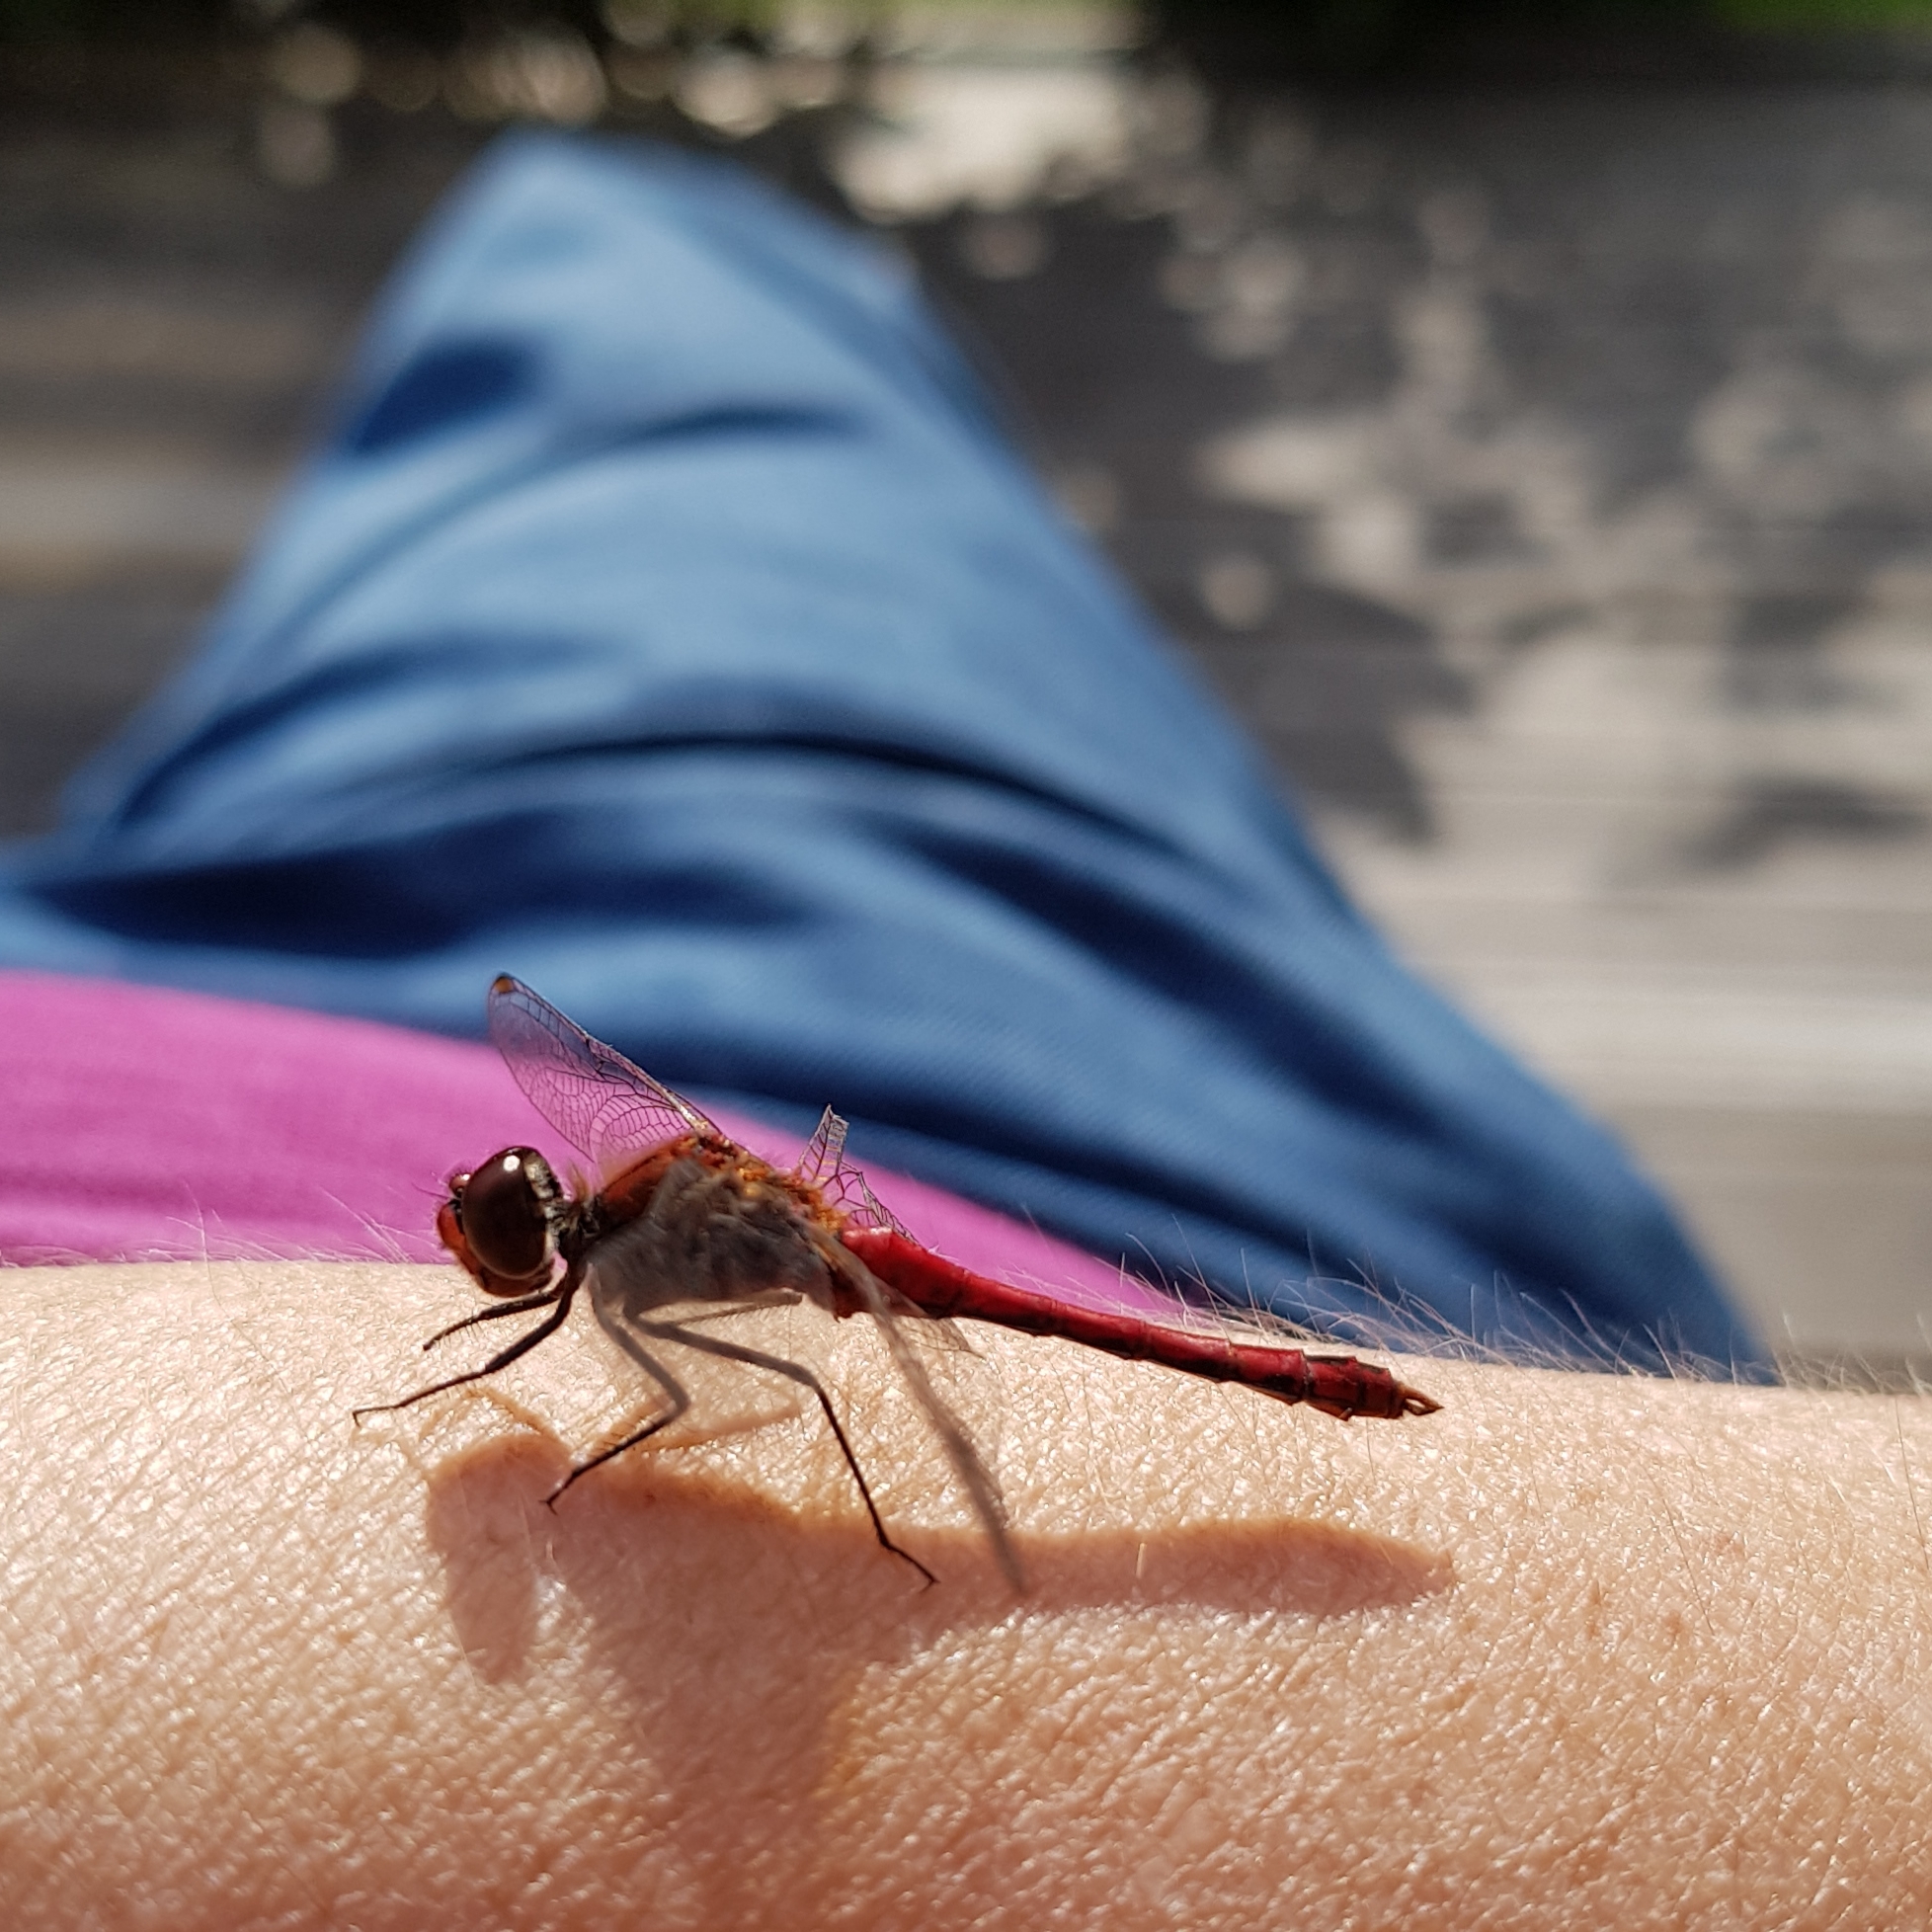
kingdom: Animalia
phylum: Arthropoda
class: Insecta
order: Odonata
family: Libellulidae
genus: Sympetrum
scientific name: Sympetrum sanguineum
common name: Ruddy darter
